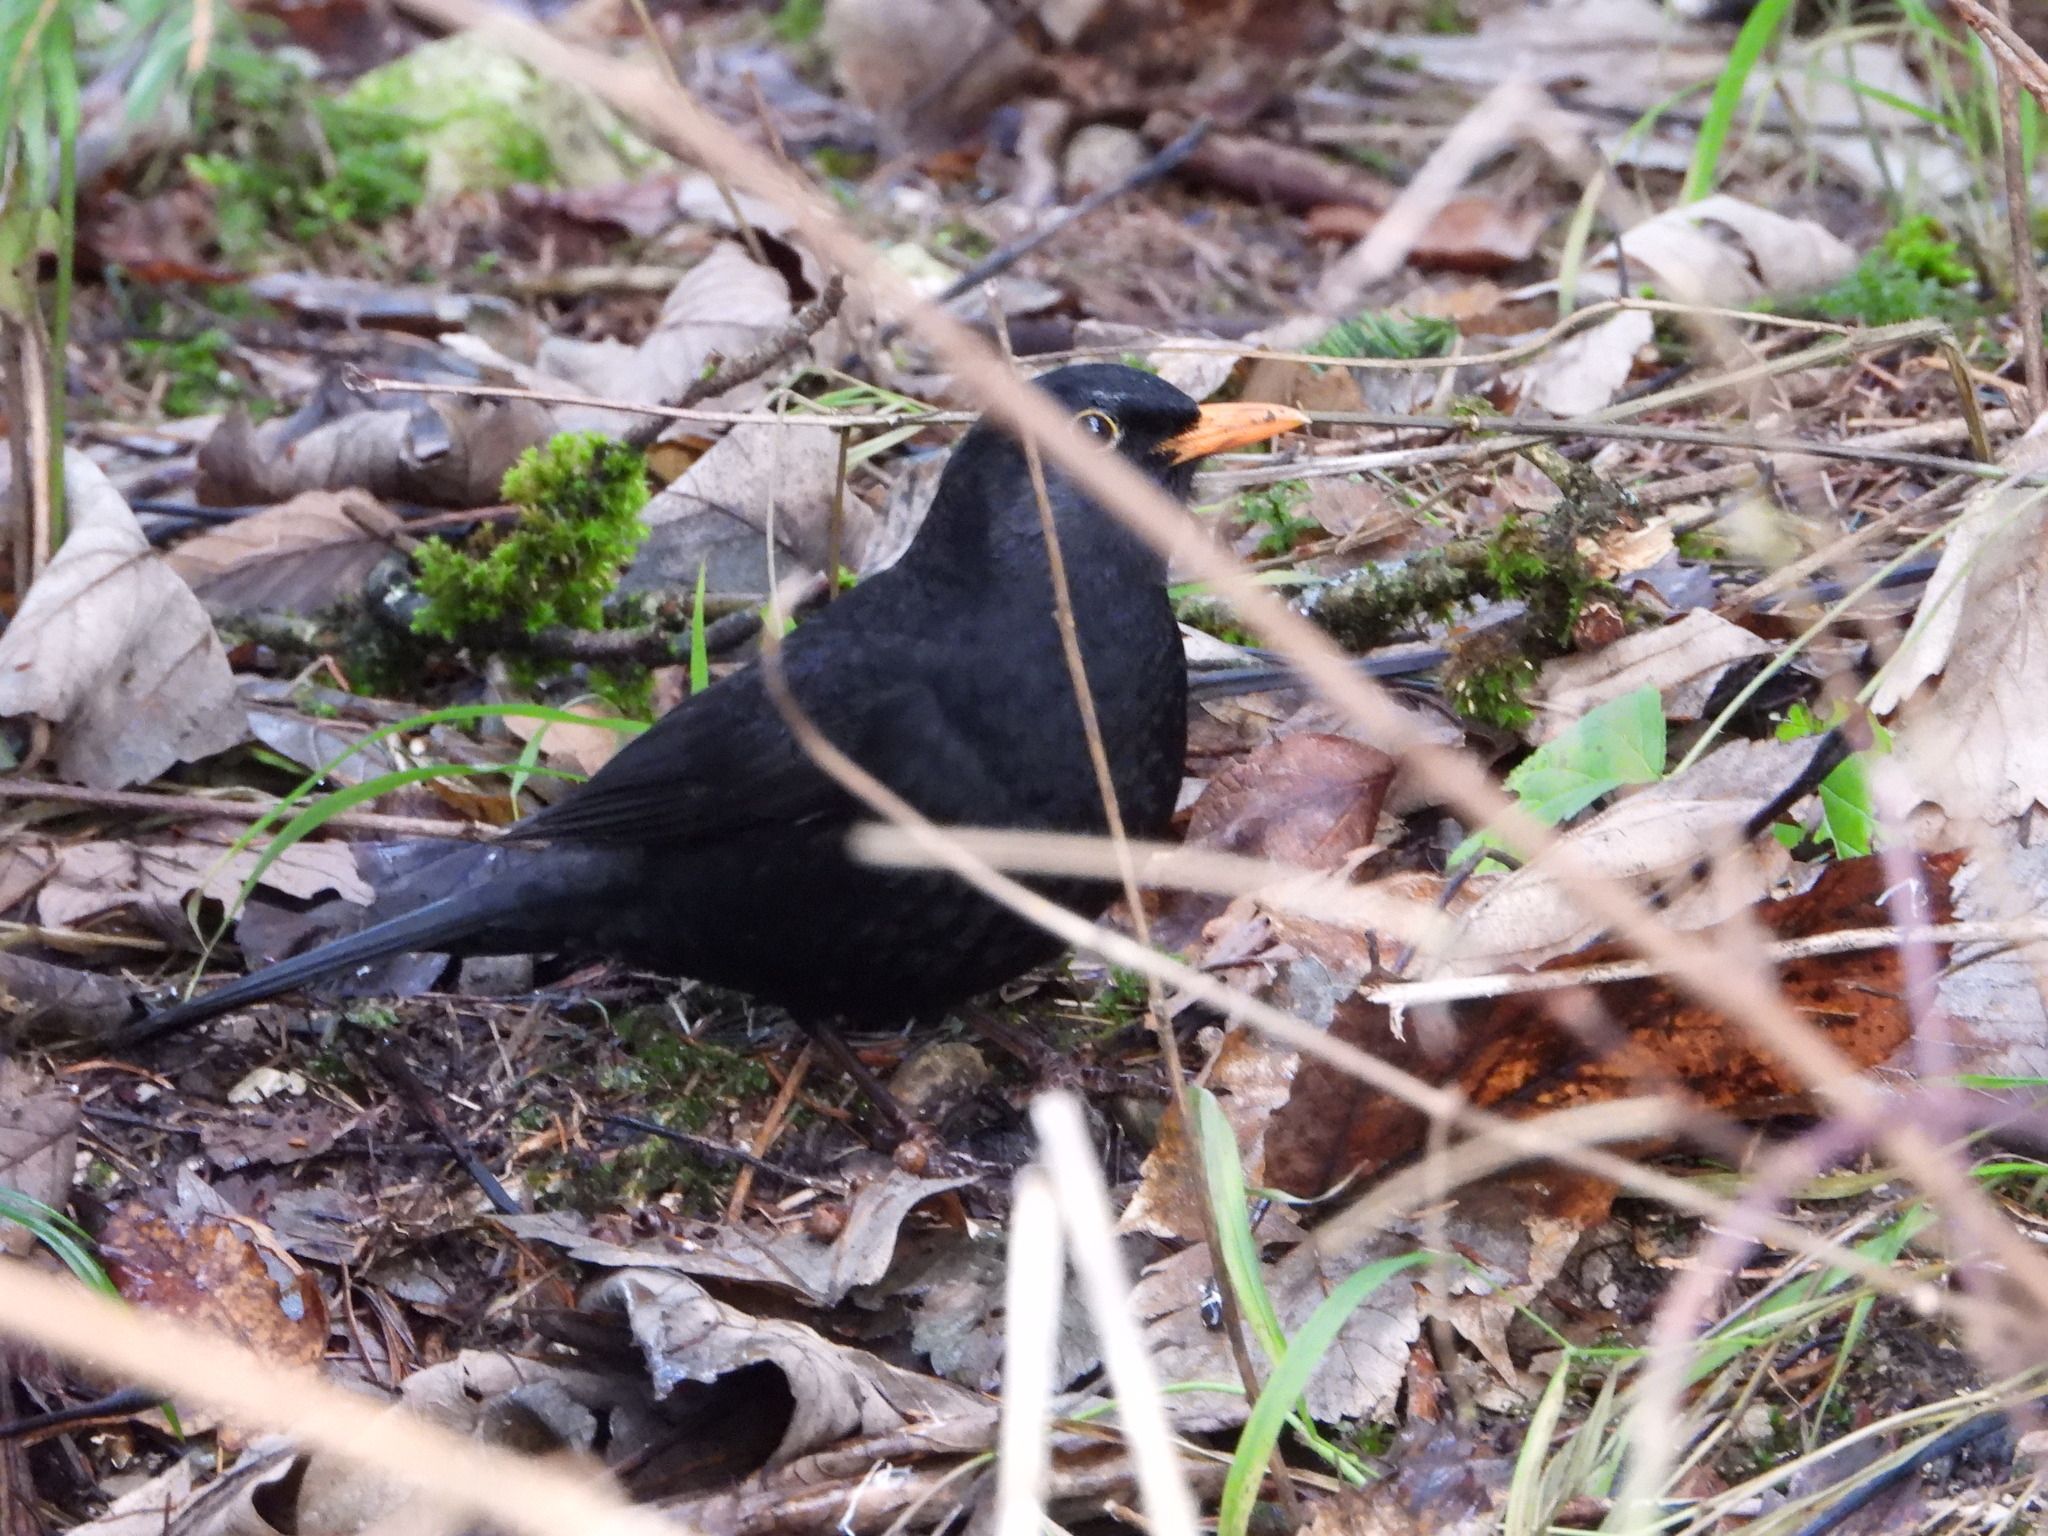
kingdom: Animalia
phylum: Chordata
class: Aves
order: Passeriformes
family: Turdidae
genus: Turdus
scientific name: Turdus merula
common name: Common blackbird
